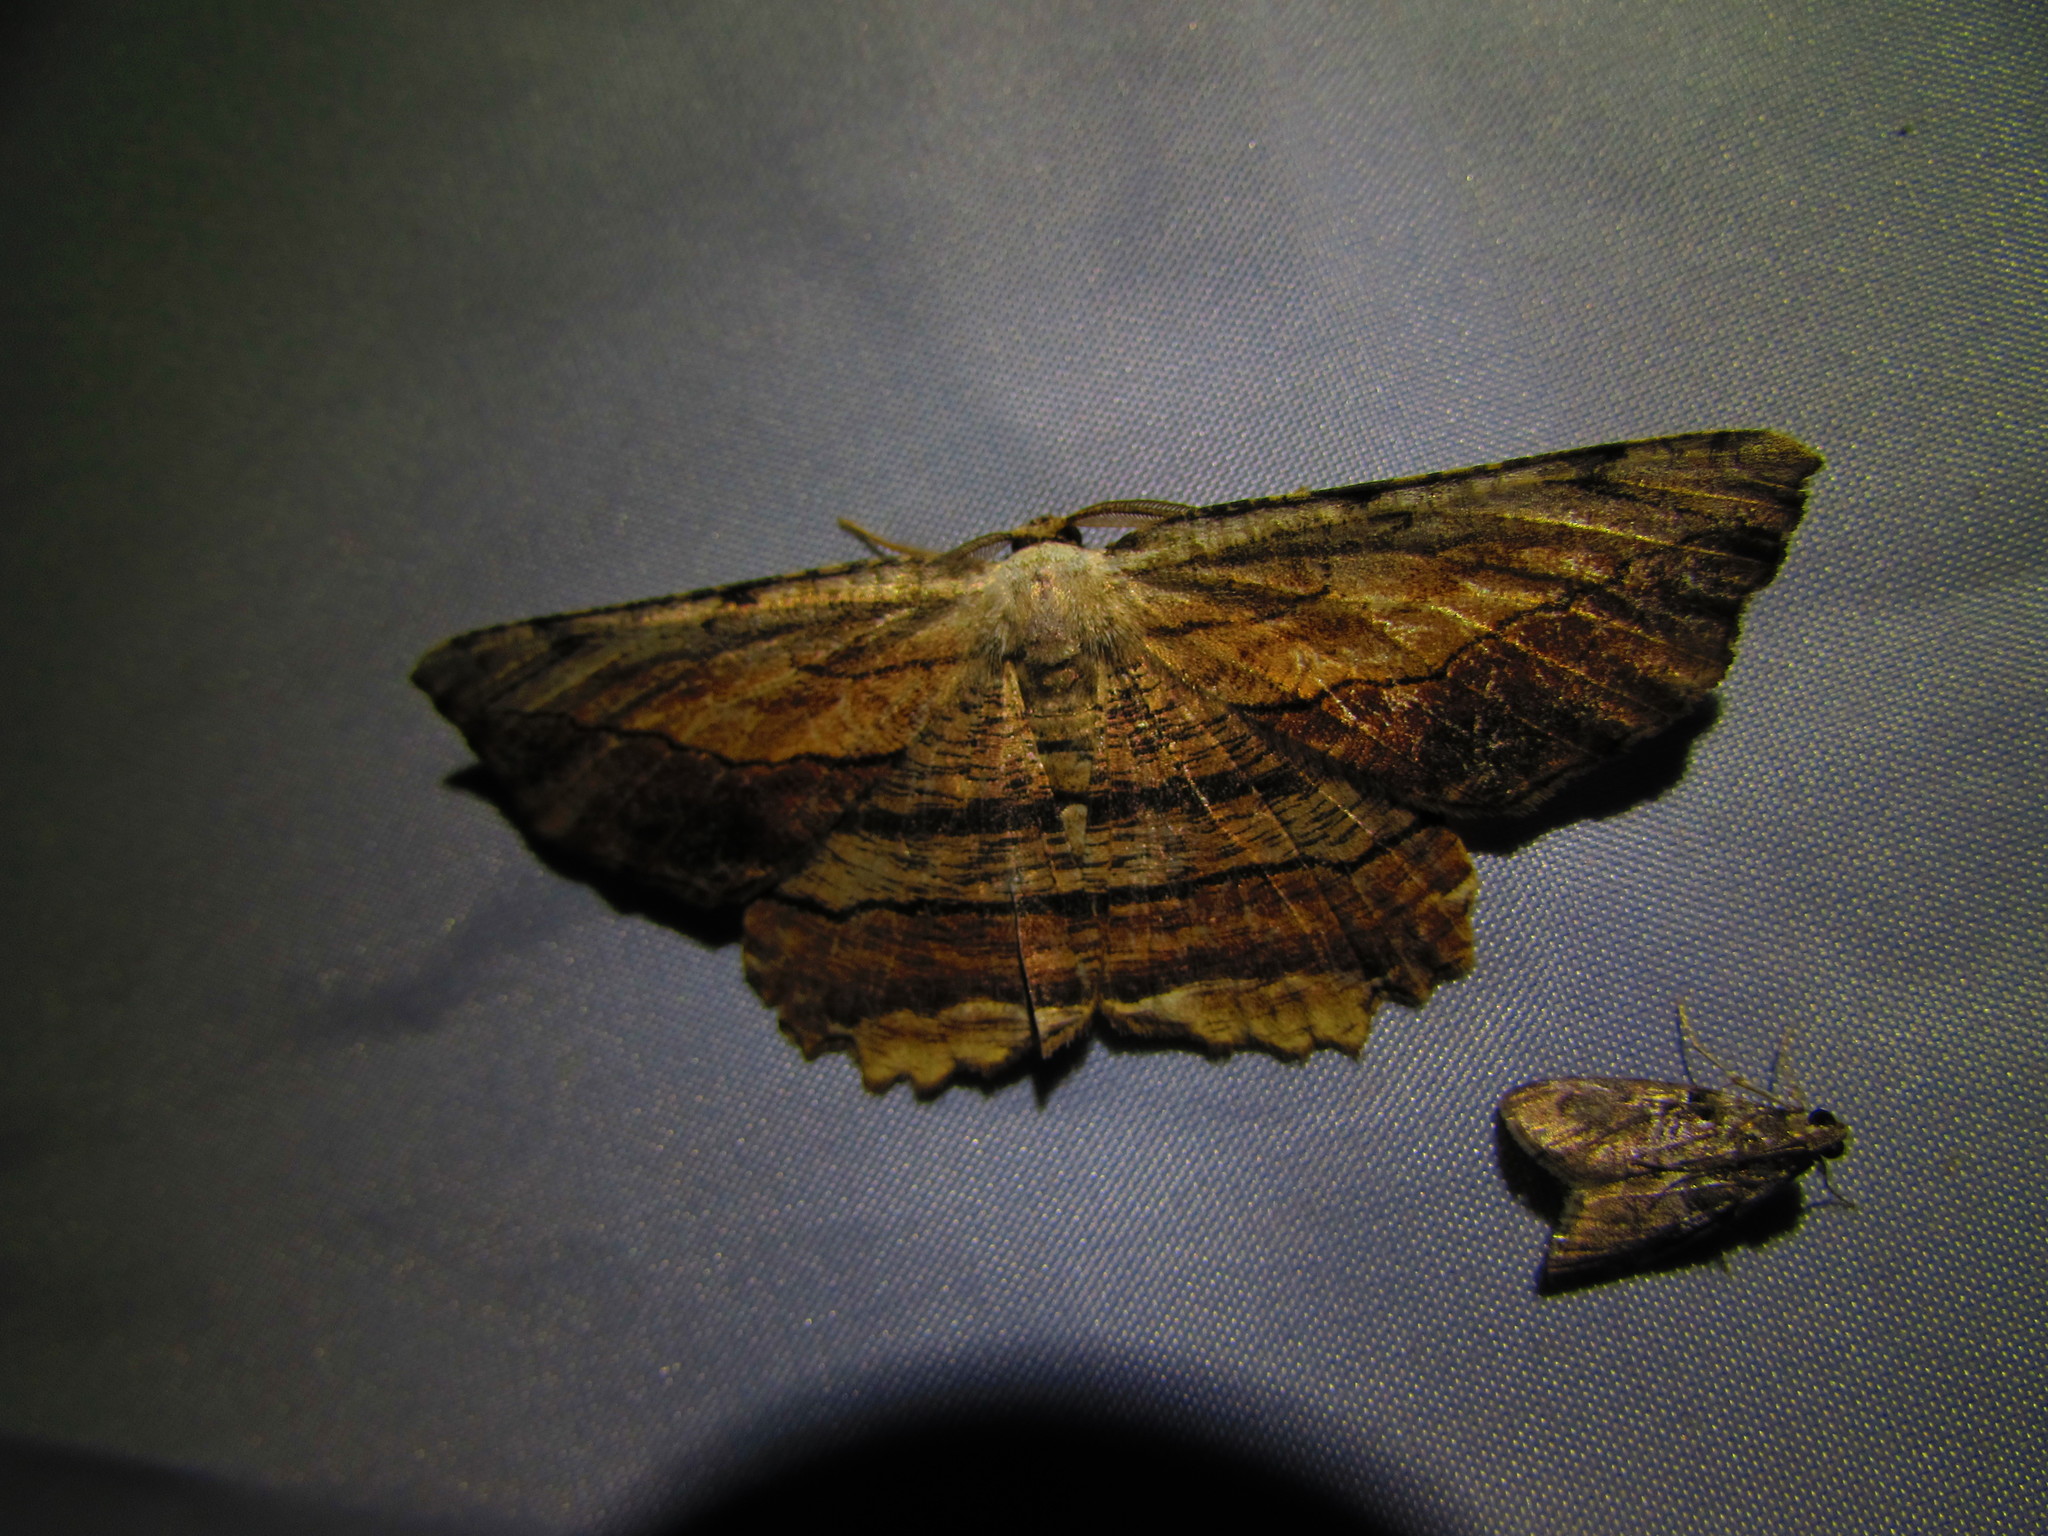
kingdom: Animalia
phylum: Arthropoda
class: Insecta
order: Lepidoptera
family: Geometridae
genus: Lytrosis
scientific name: Lytrosis unitaria
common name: Common lytrosis
